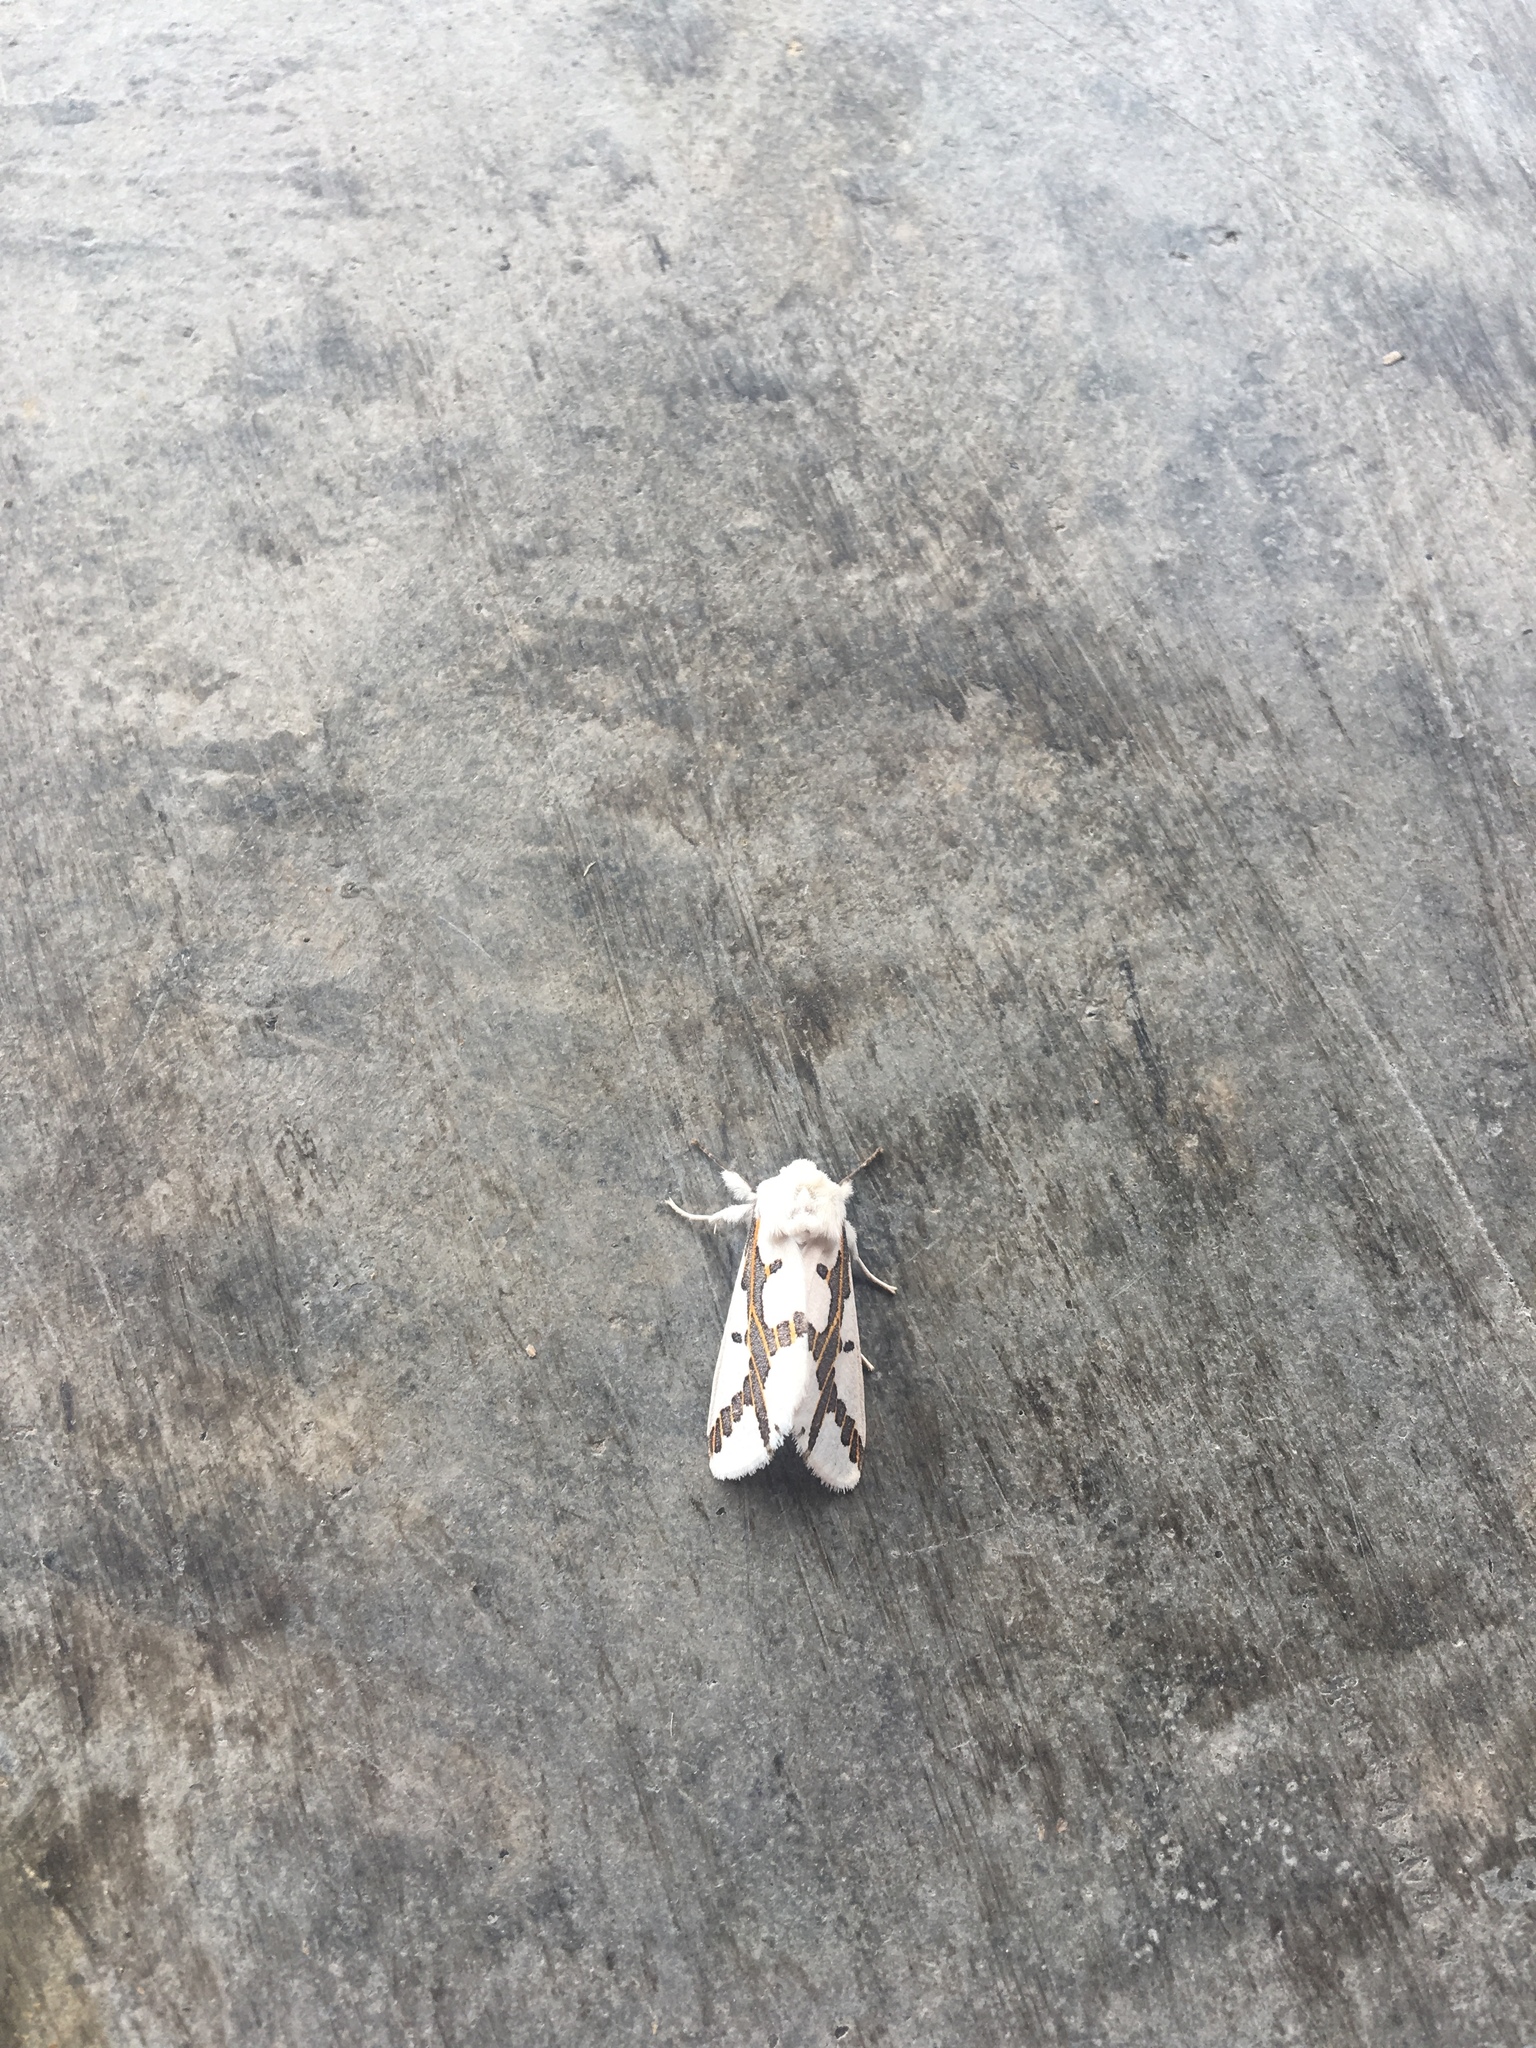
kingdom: Animalia
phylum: Arthropoda
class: Insecta
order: Lepidoptera
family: Erebidae
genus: Euerythra
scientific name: Euerythra phasma
